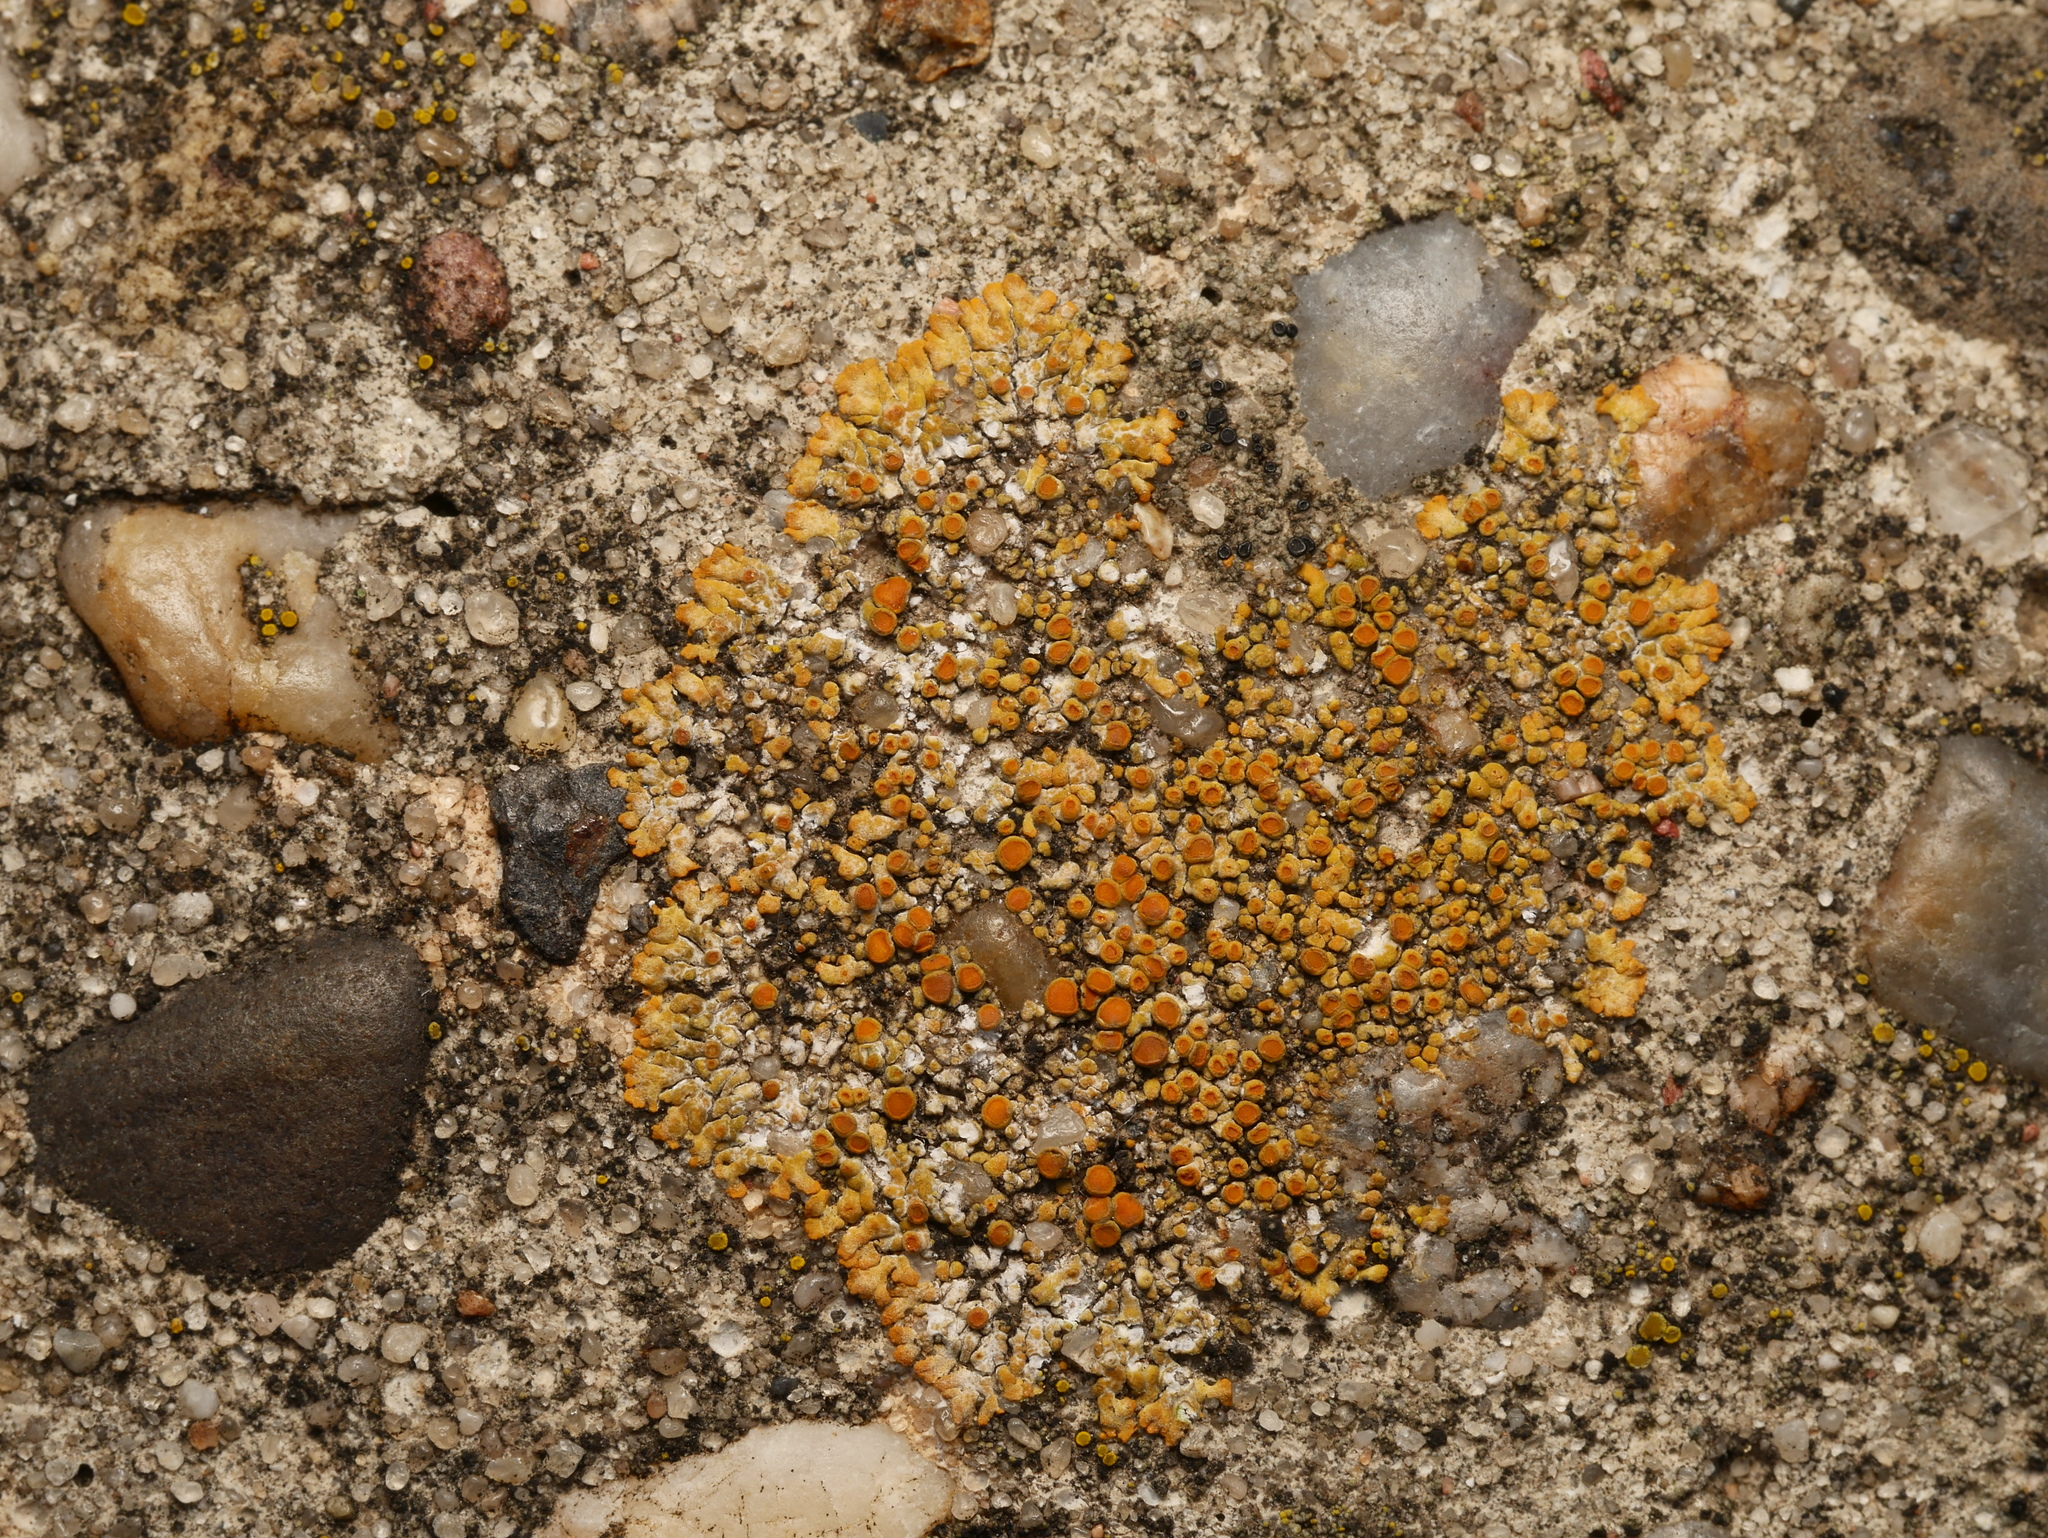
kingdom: Fungi
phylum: Ascomycota
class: Lecanoromycetes
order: Teloschistales
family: Teloschistaceae
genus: Calogaya
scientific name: Calogaya pusilla
